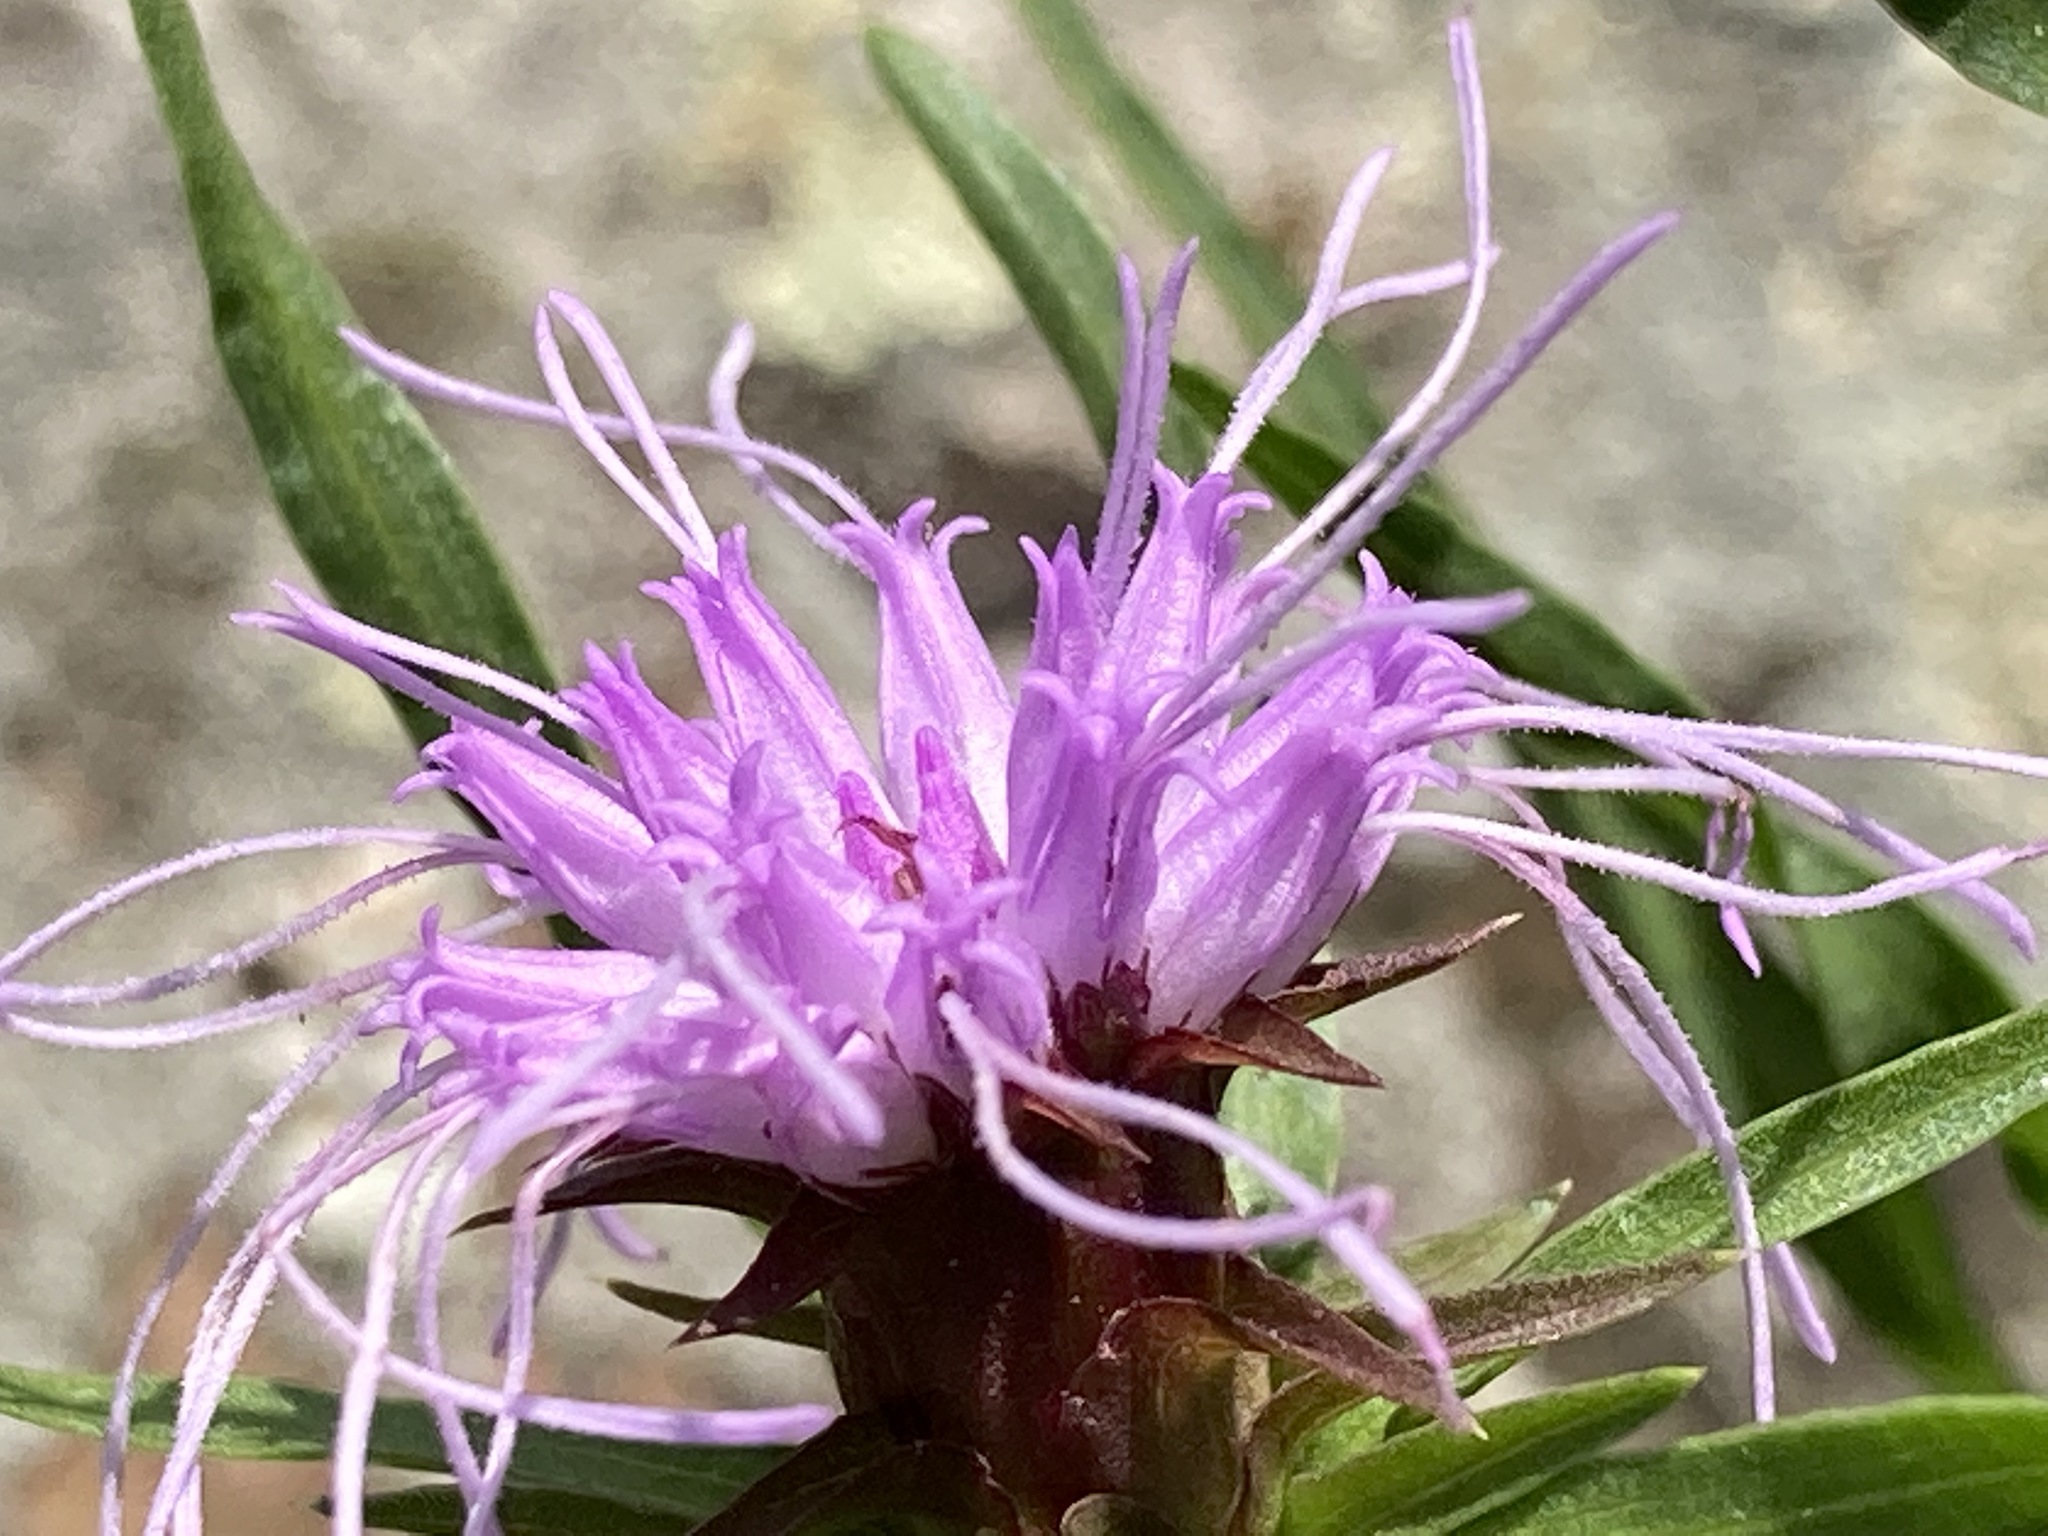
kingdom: Plantae
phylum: Tracheophyta
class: Magnoliopsida
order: Asterales
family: Asteraceae
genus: Liatris
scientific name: Liatris compacta
